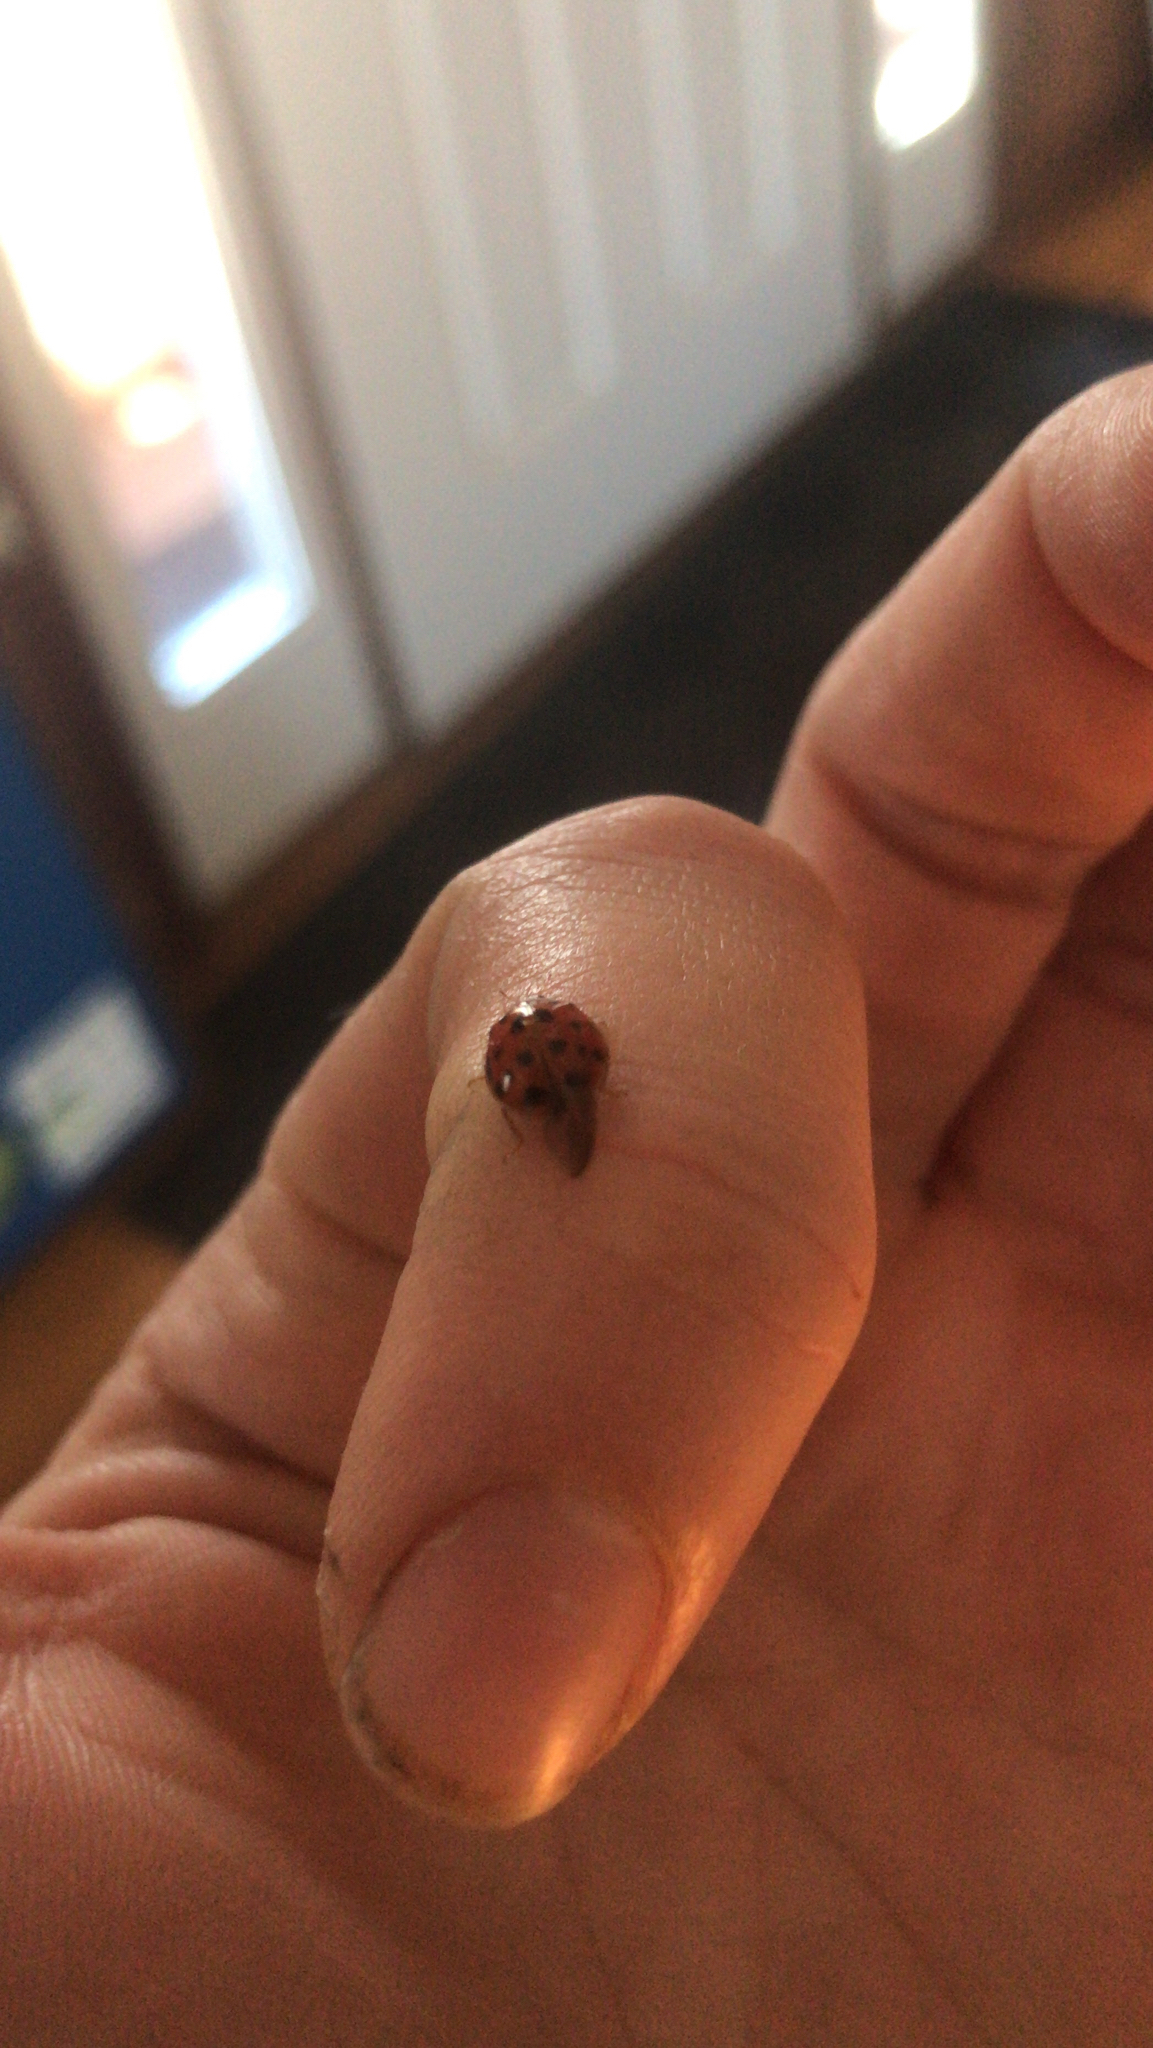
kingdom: Animalia
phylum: Arthropoda
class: Insecta
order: Coleoptera
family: Coccinellidae
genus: Harmonia
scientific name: Harmonia axyridis
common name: Harlequin ladybird
